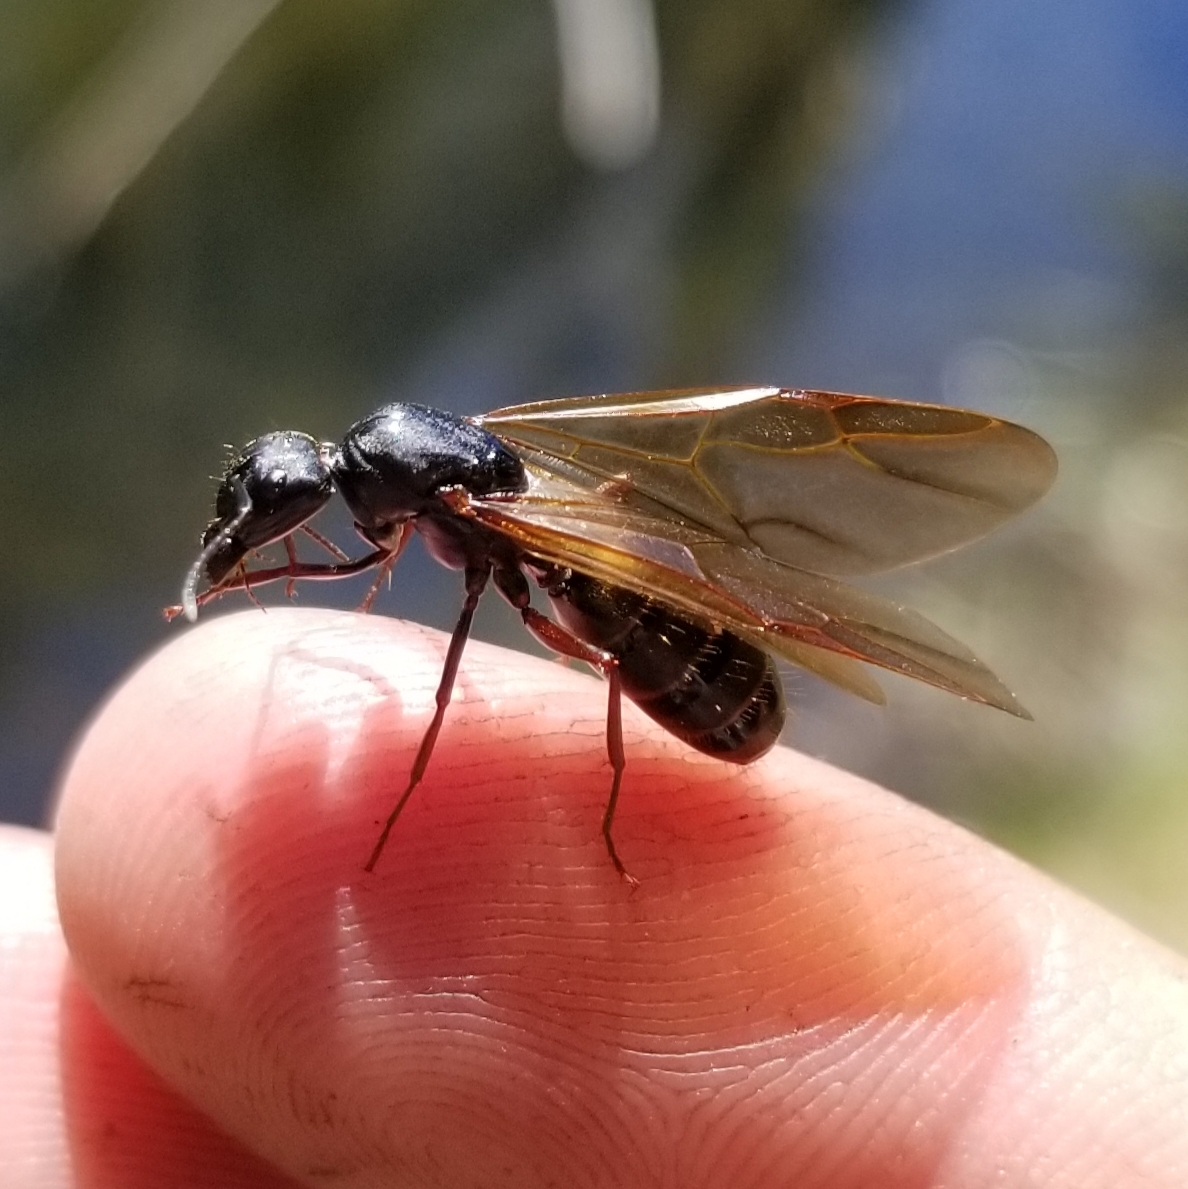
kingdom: Animalia
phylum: Arthropoda
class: Insecta
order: Hymenoptera
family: Formicidae
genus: Camponotus
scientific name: Camponotus modoc
